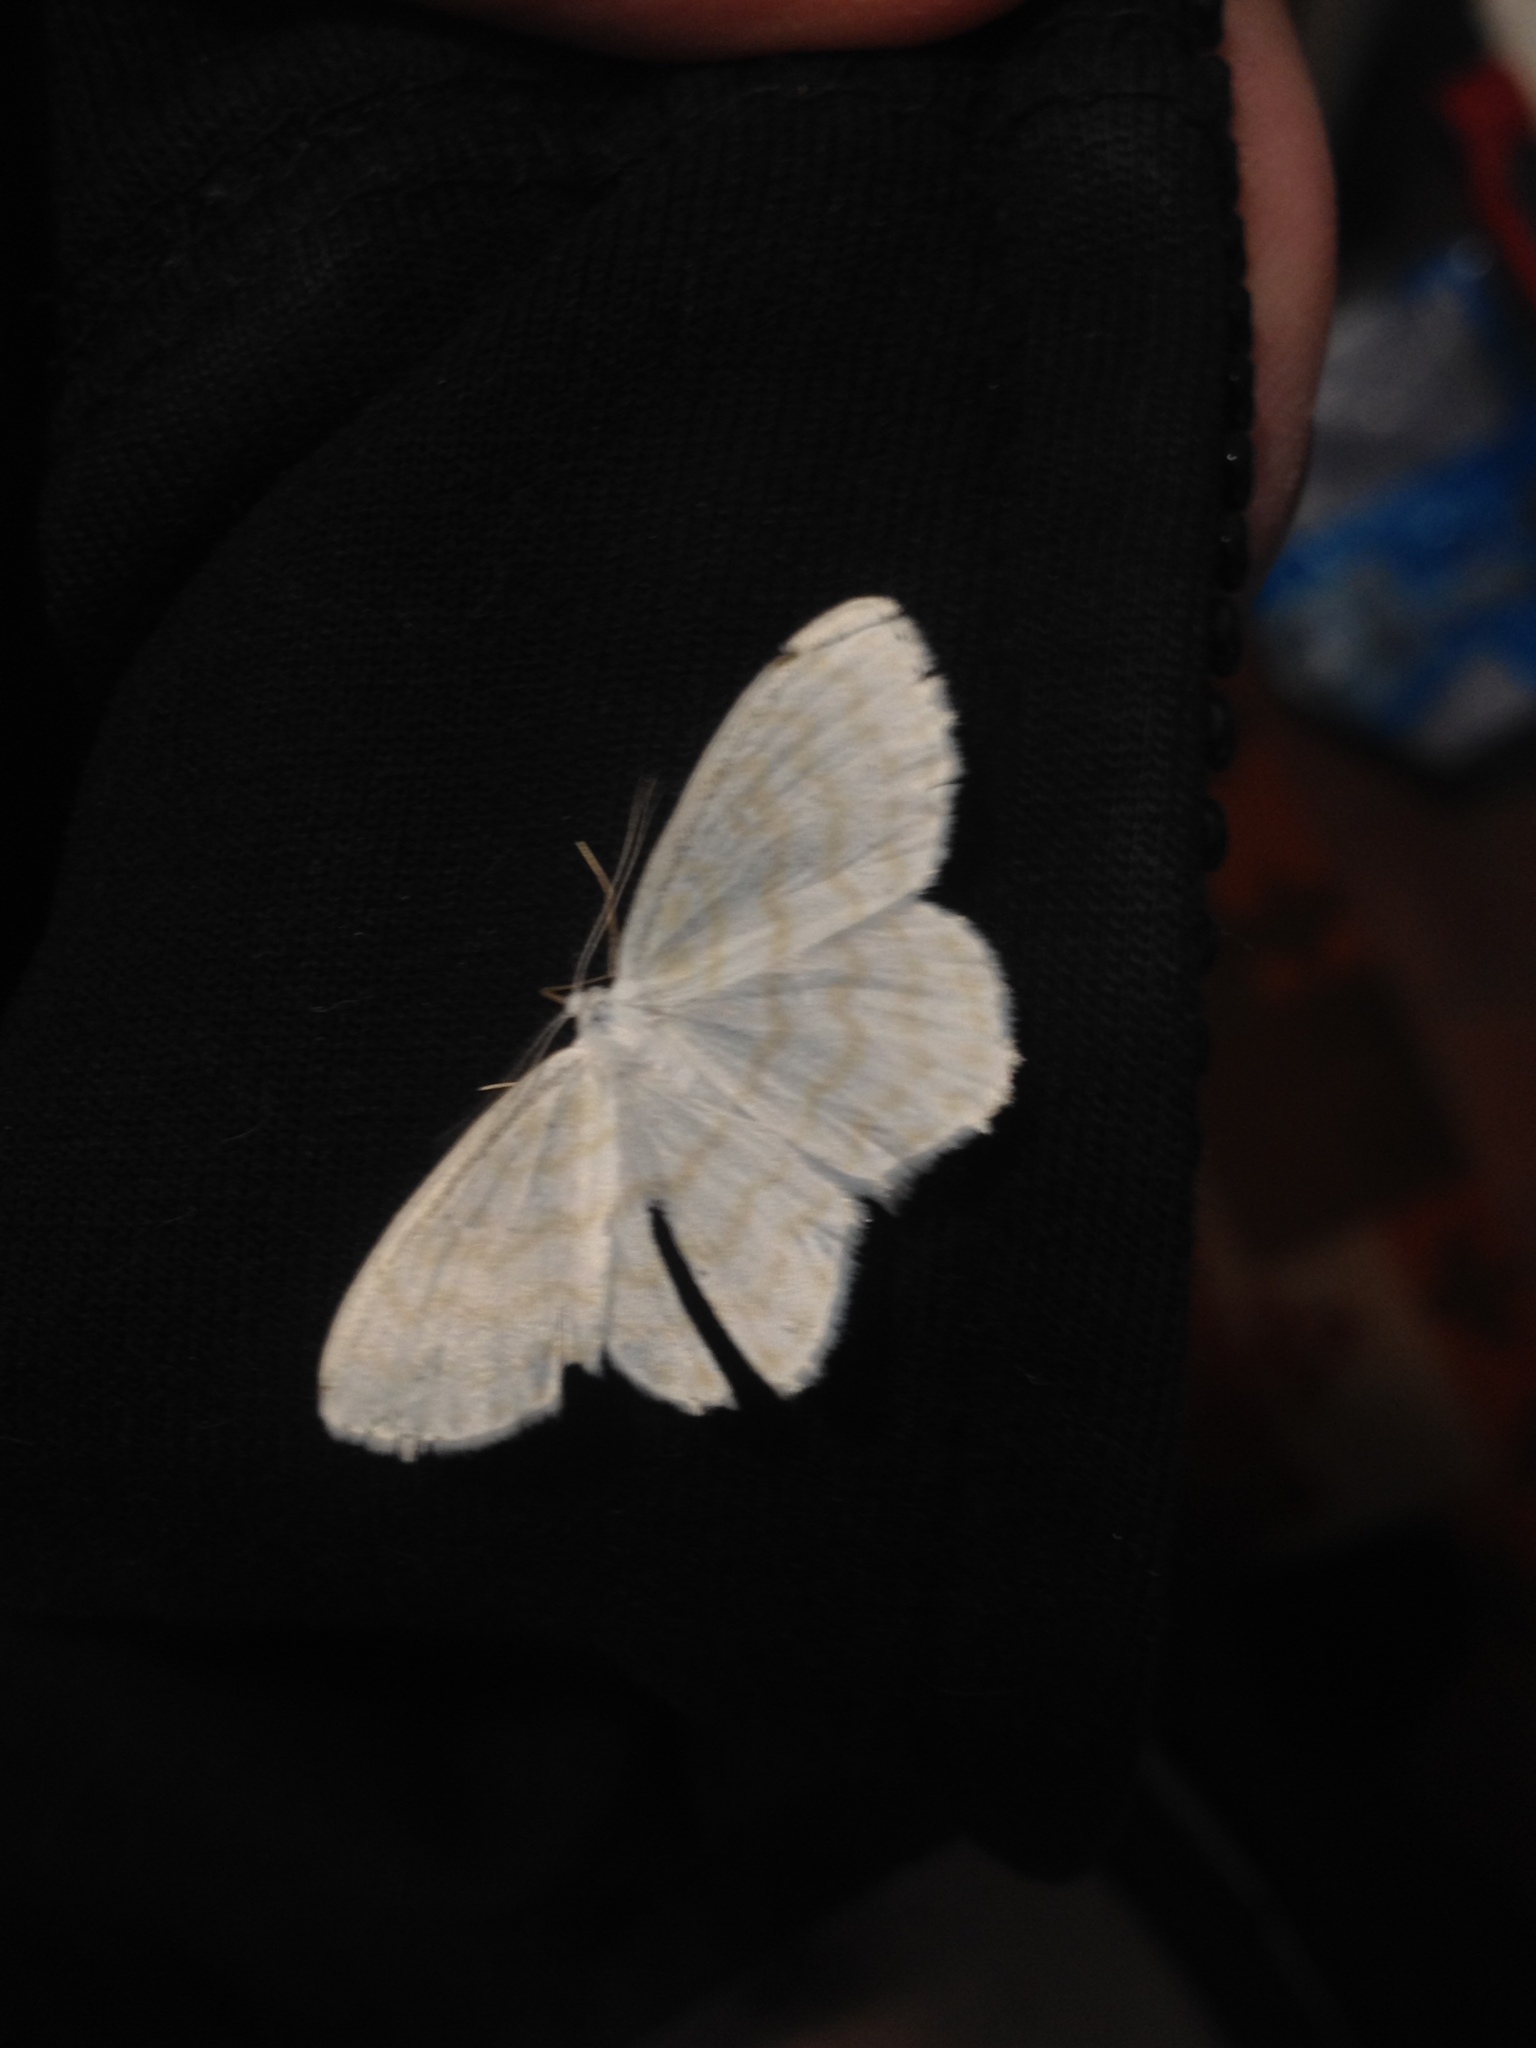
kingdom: Animalia
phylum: Arthropoda
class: Insecta
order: Lepidoptera
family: Geometridae
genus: Scopula
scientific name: Scopula nemoraria
